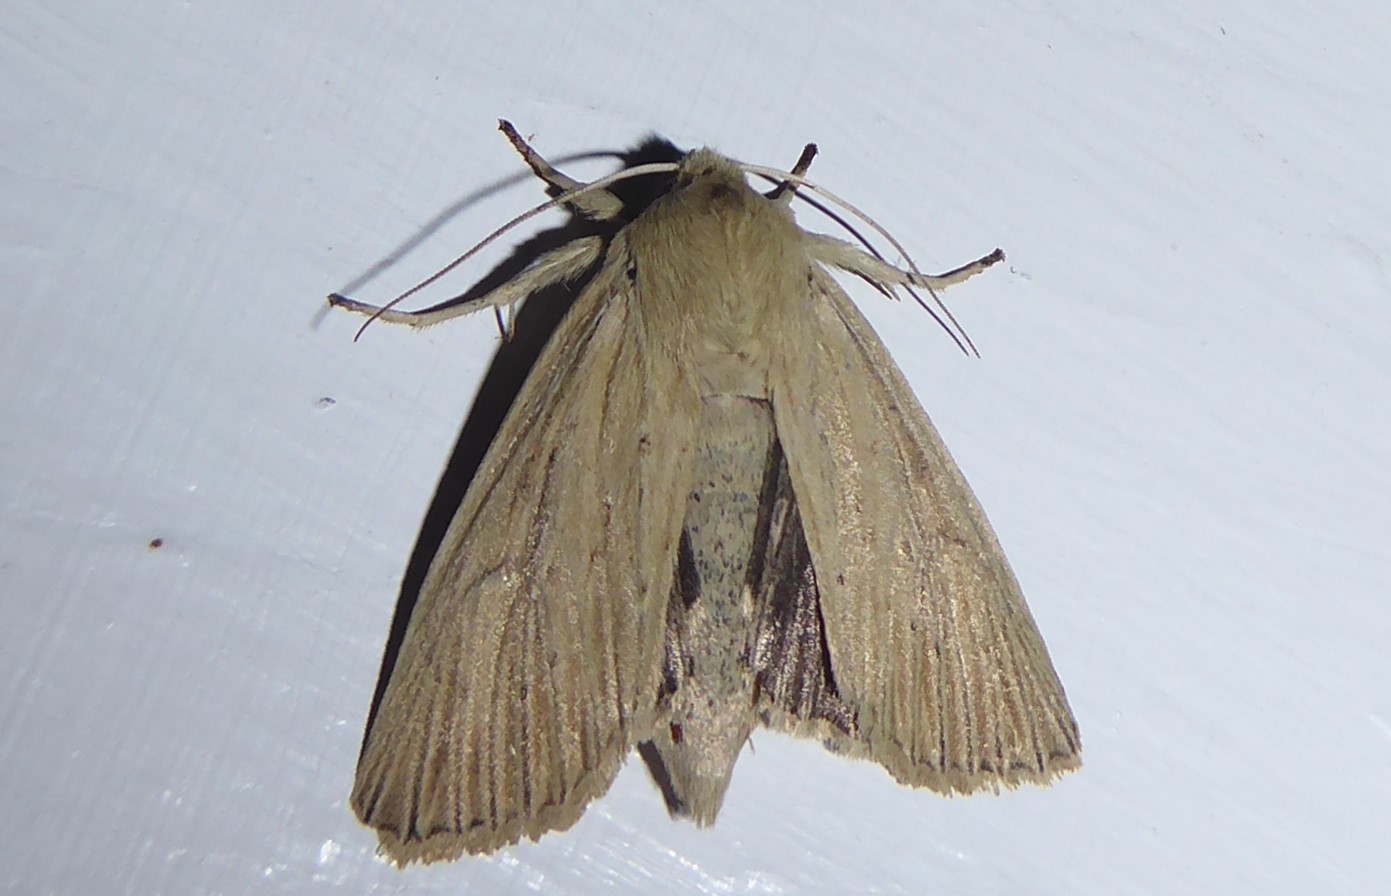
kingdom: Animalia
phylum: Arthropoda
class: Insecta
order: Lepidoptera
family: Noctuidae
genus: Ichneutica
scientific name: Ichneutica arotis
